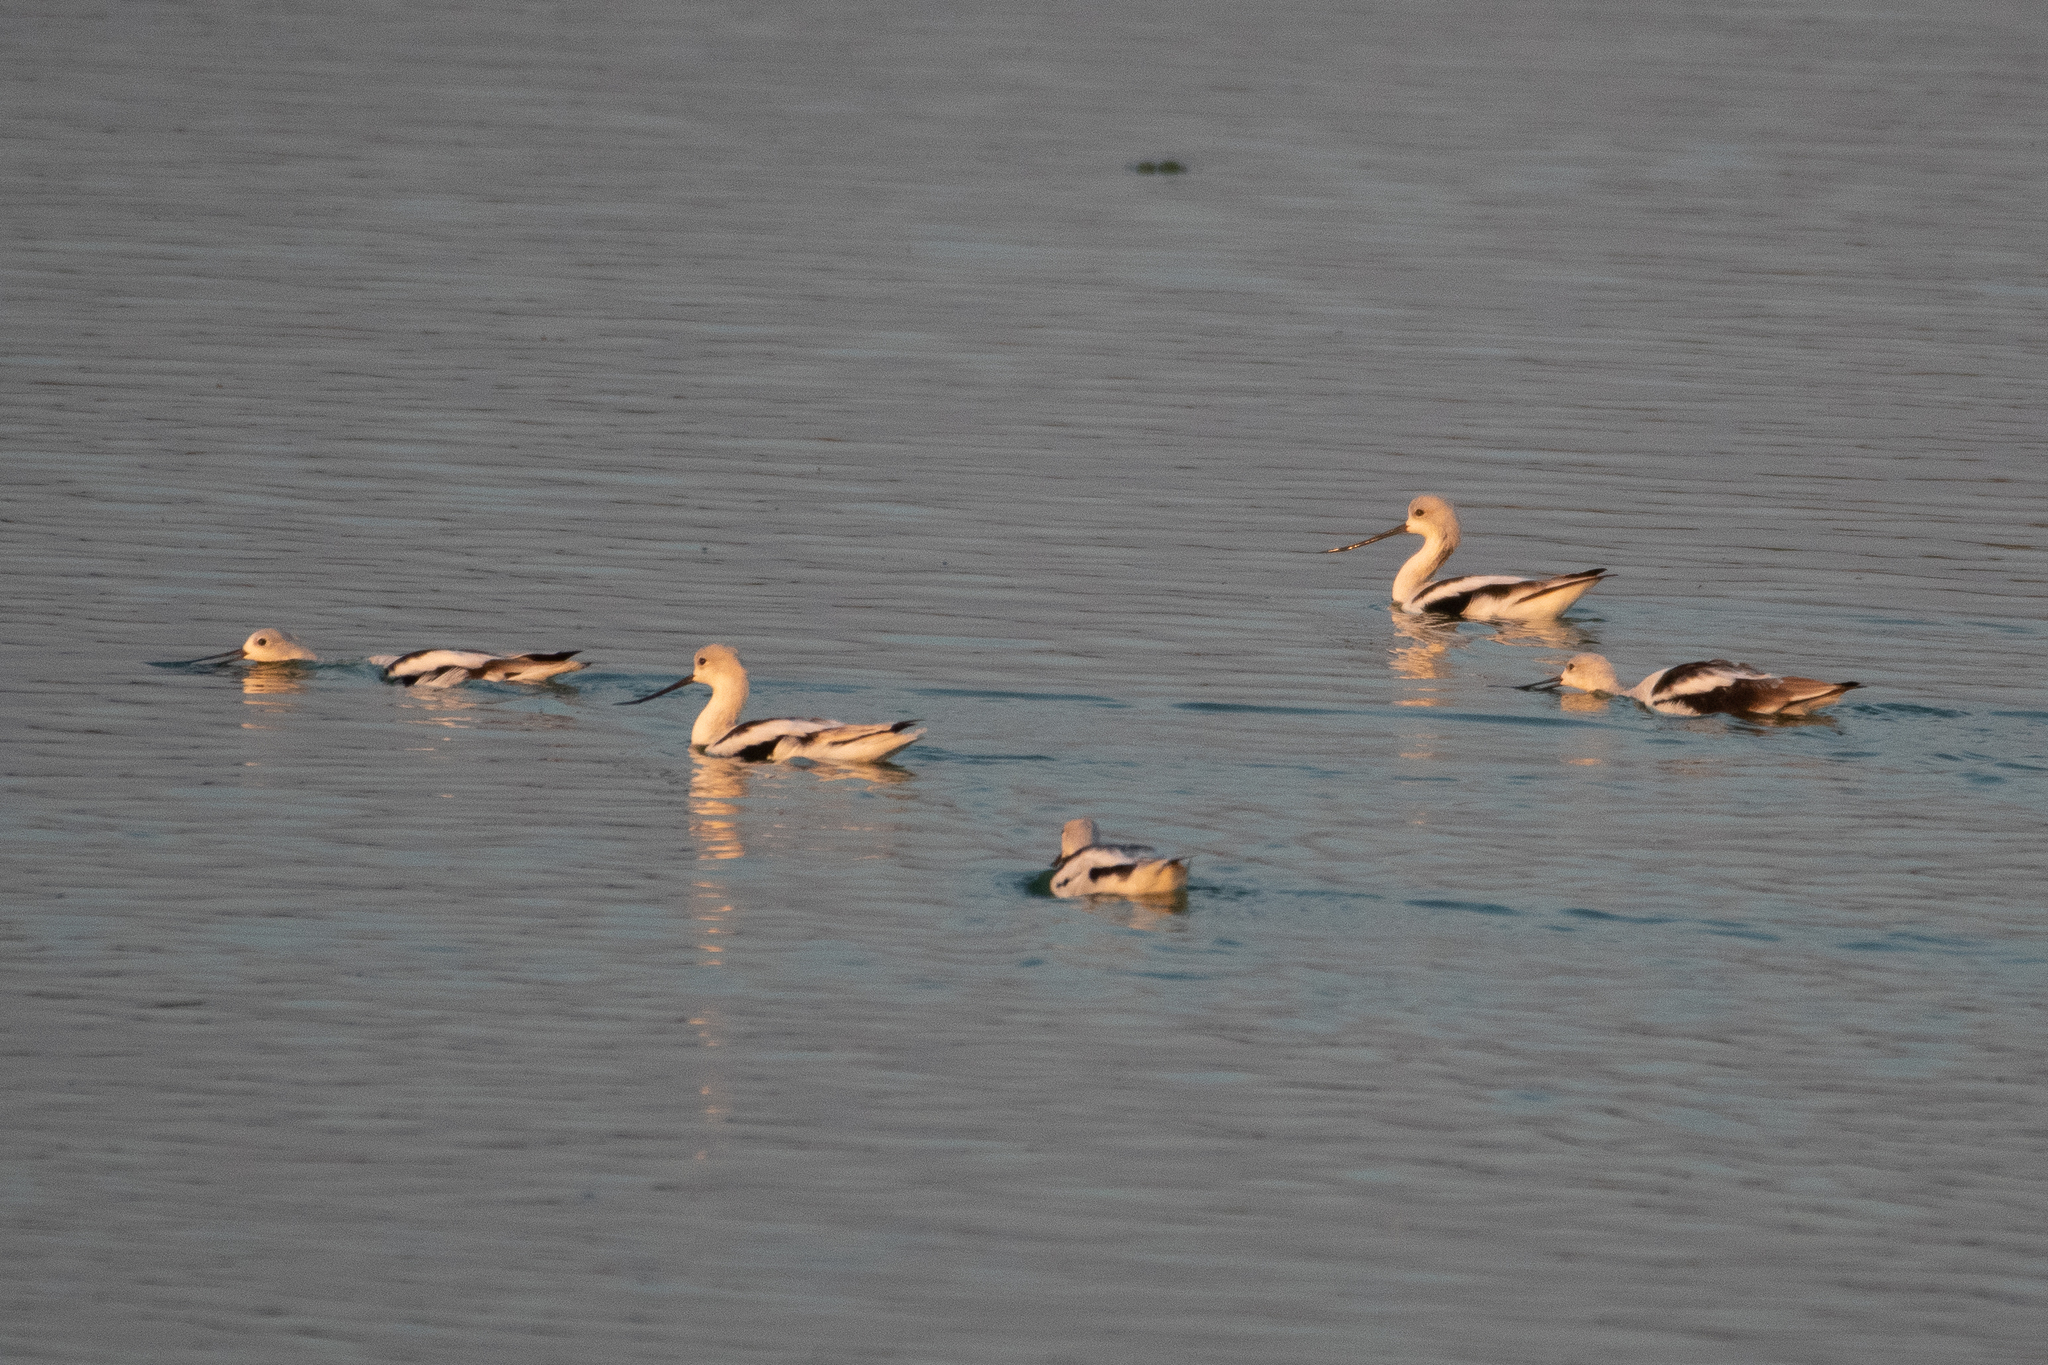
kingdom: Animalia
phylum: Chordata
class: Aves
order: Charadriiformes
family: Recurvirostridae
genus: Recurvirostra
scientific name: Recurvirostra americana
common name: American avocet
